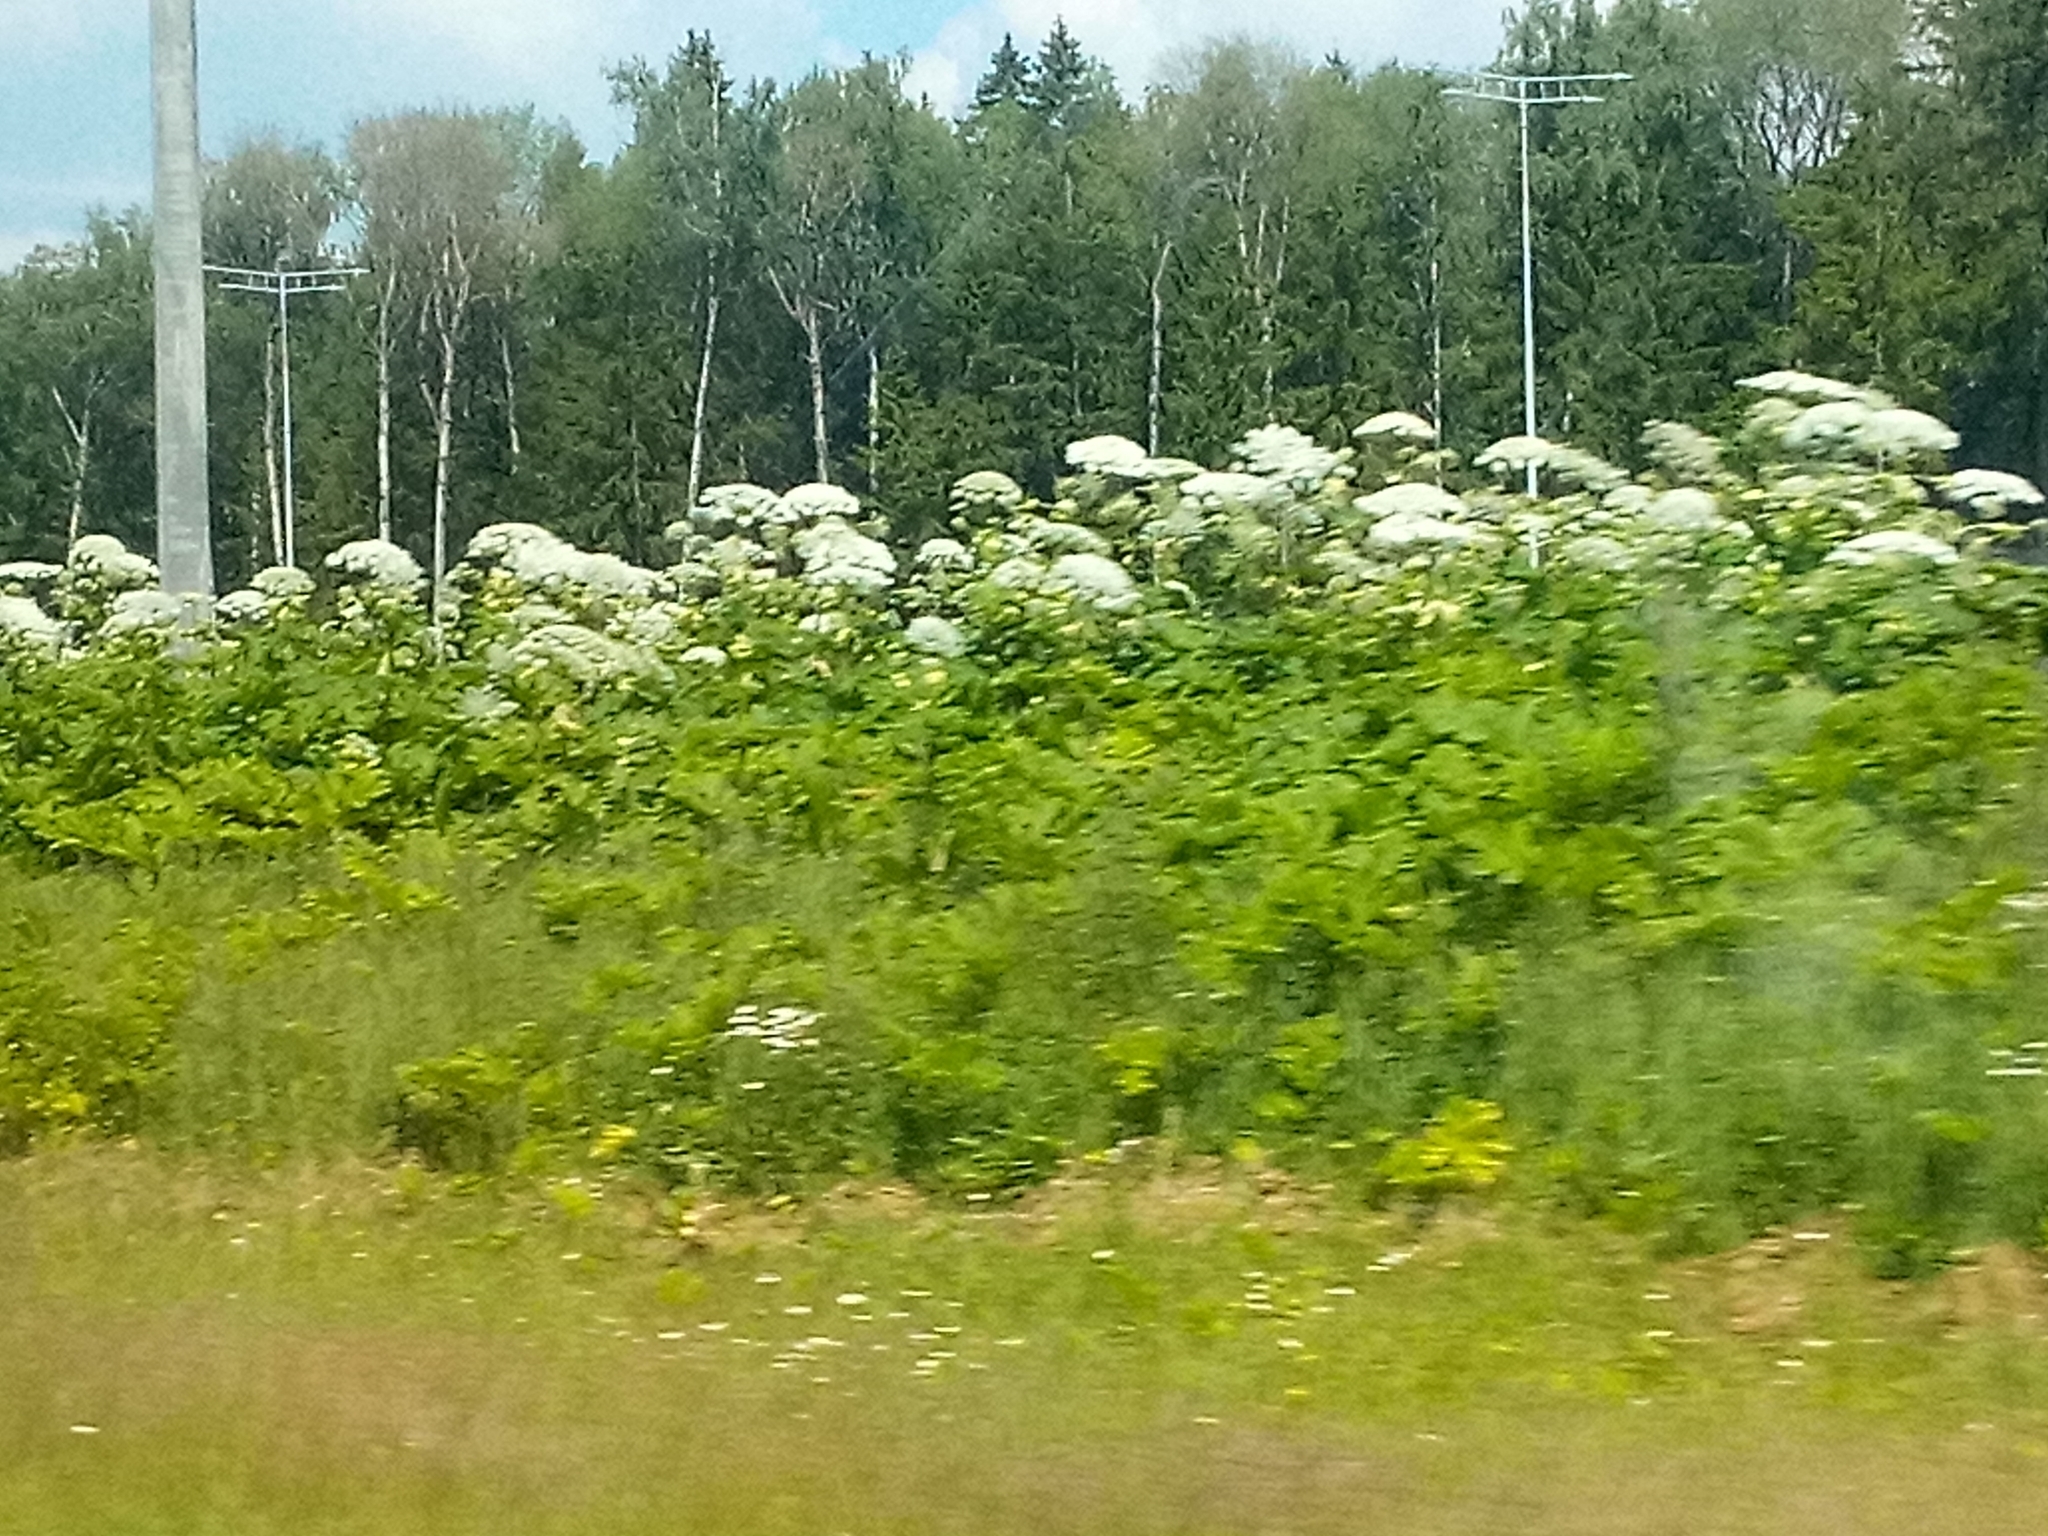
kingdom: Plantae
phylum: Tracheophyta
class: Magnoliopsida
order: Apiales
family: Apiaceae
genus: Heracleum
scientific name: Heracleum sosnowskyi
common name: Sosnowsky's hogweed
